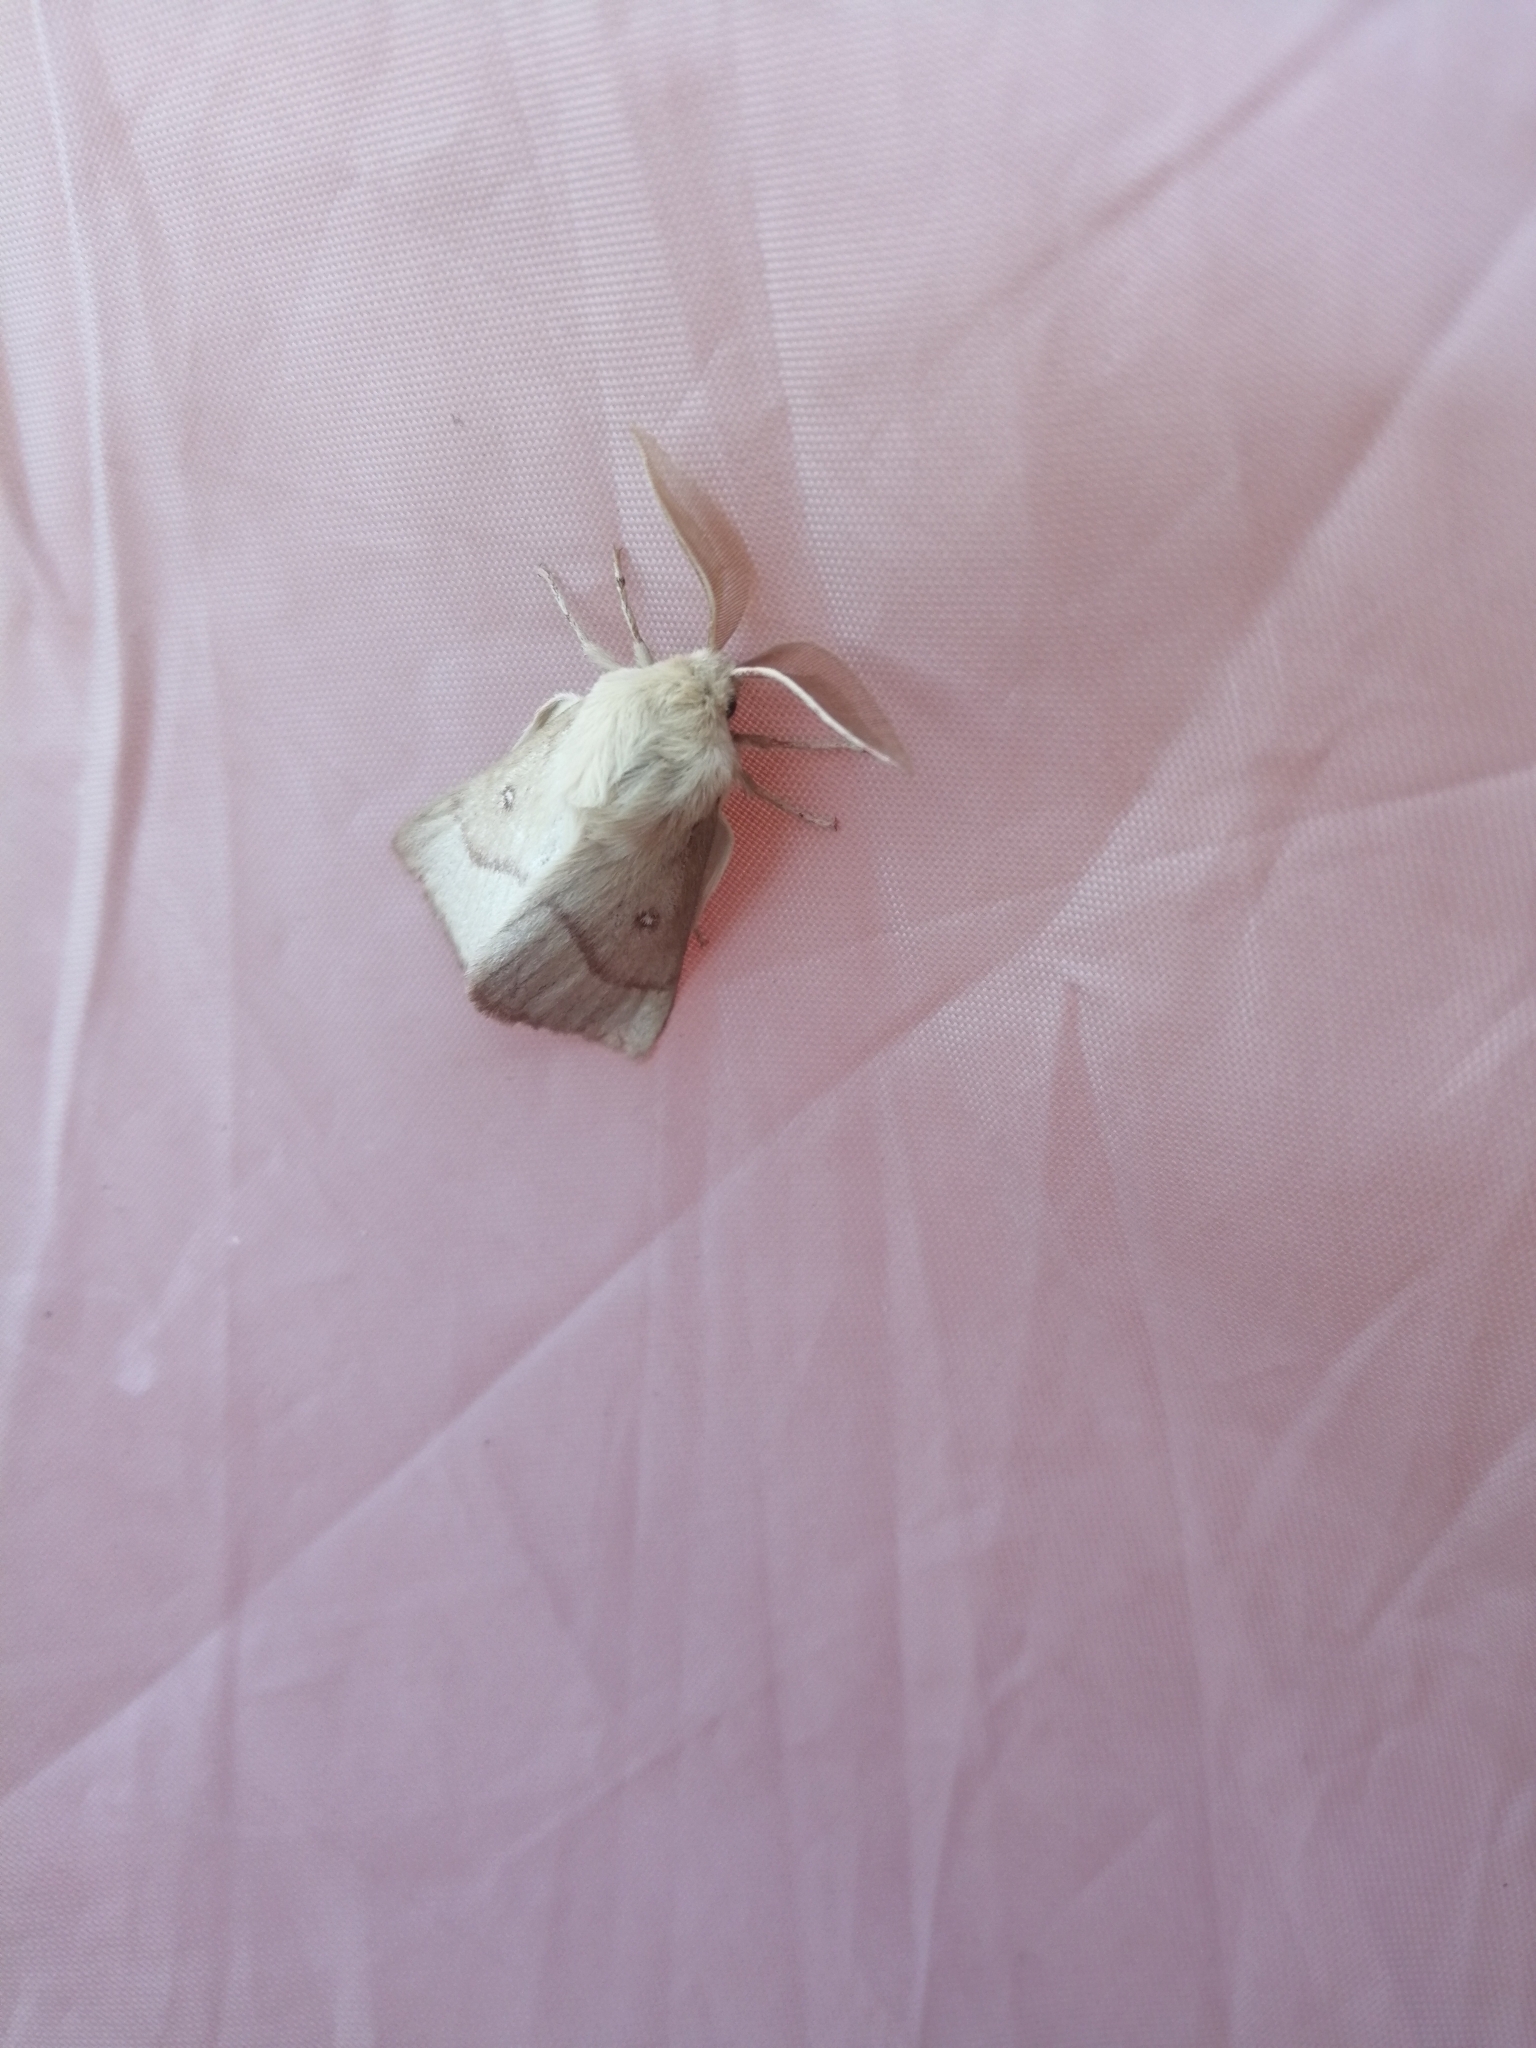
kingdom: Animalia
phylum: Arthropoda
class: Insecta
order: Lepidoptera
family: Lasiocampidae
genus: Lasiocampa
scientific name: Lasiocampa trifolii
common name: Grass eggar
